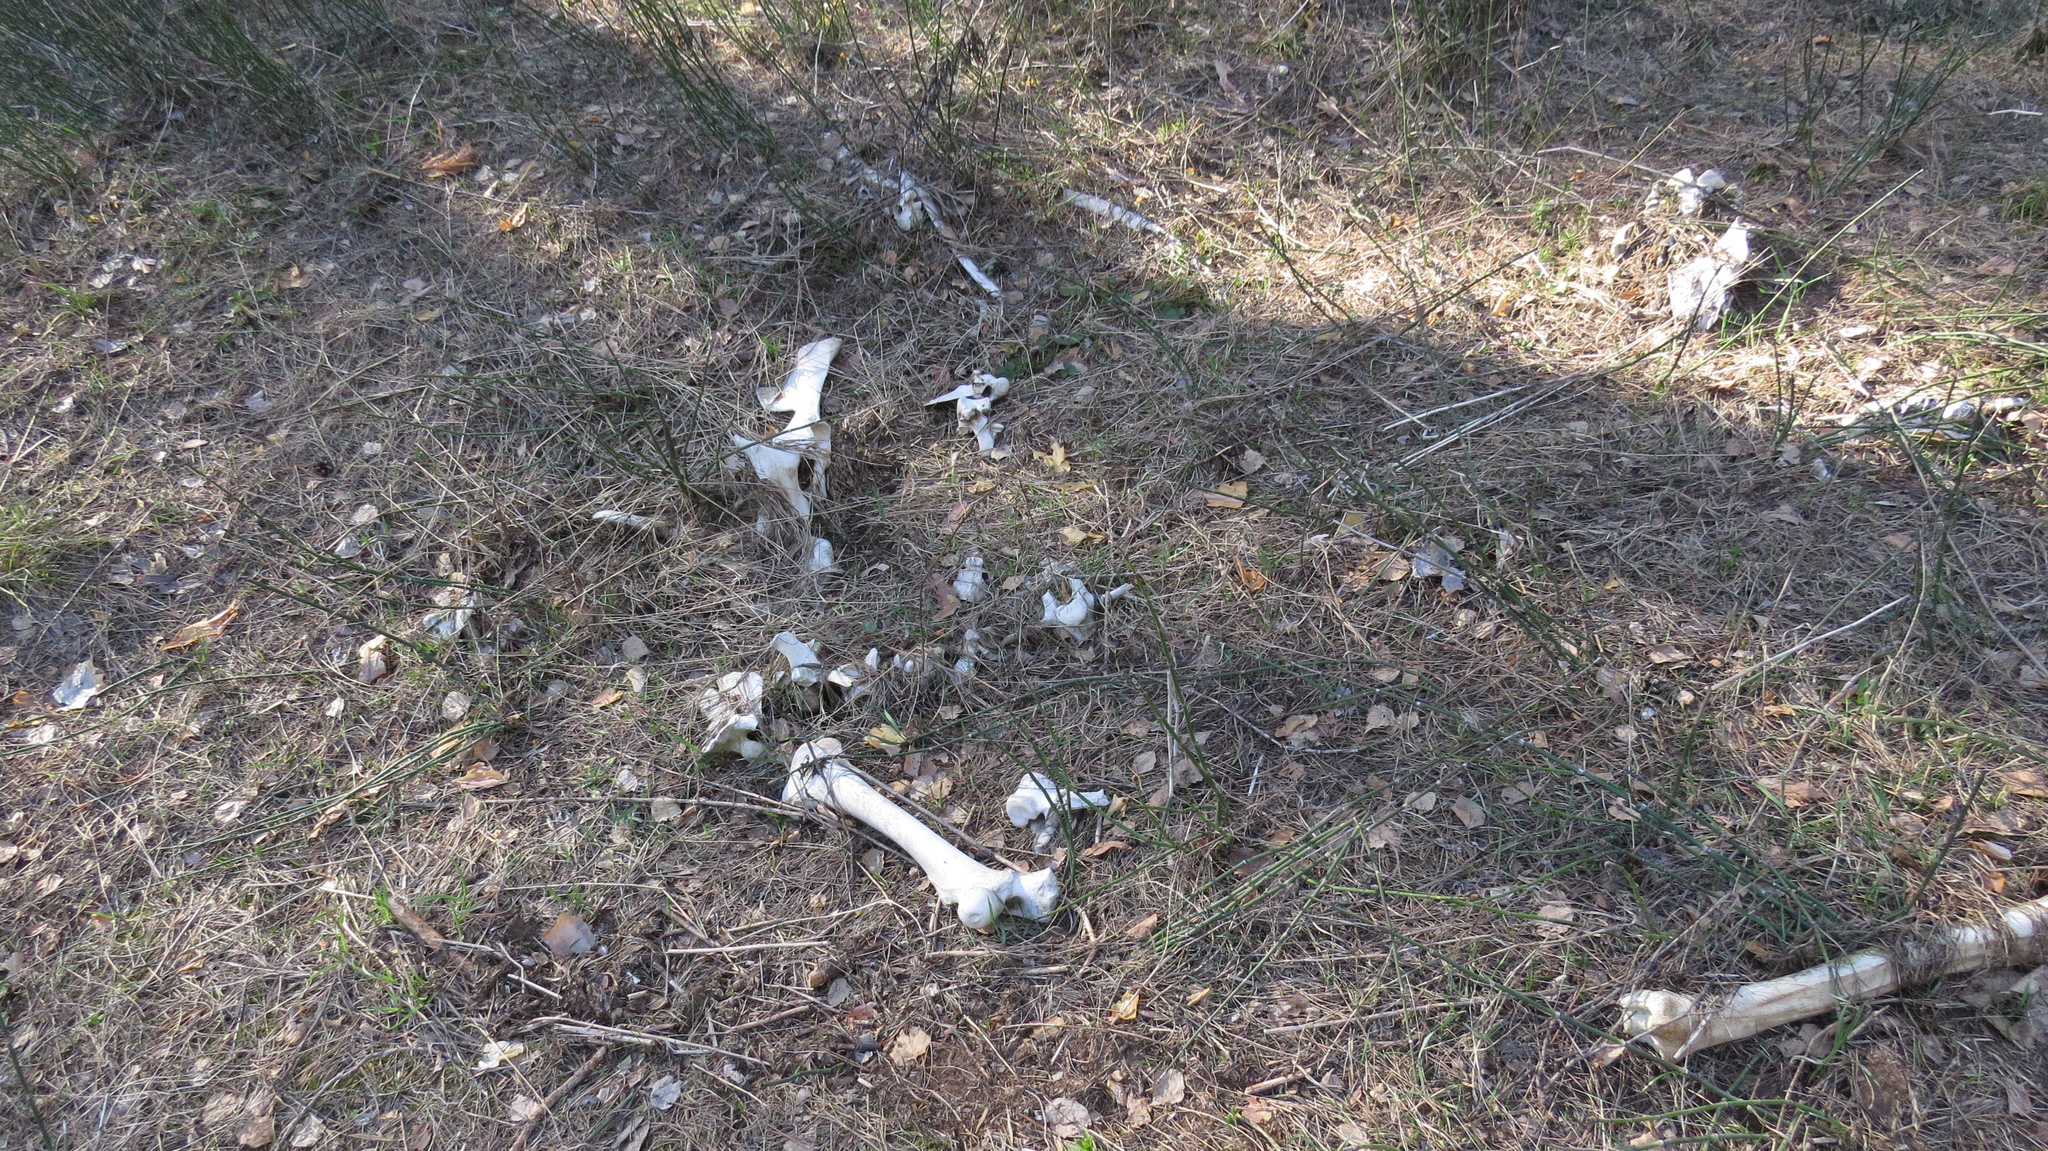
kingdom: Animalia
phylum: Chordata
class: Mammalia
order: Artiodactyla
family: Cervidae
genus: Alces
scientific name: Alces alces
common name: Moose
